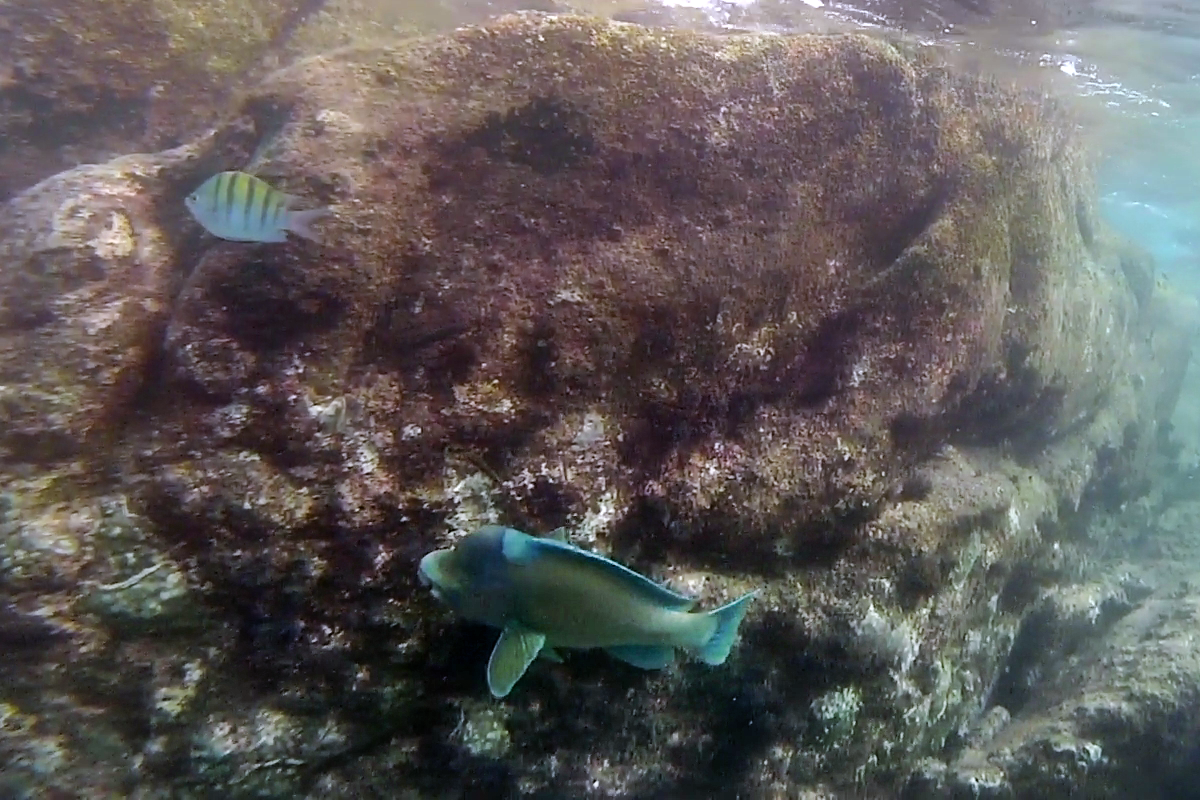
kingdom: Animalia
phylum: Chordata
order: Perciformes
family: Scaridae
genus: Scarus
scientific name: Scarus perrico
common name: Bumphead parrotfish
